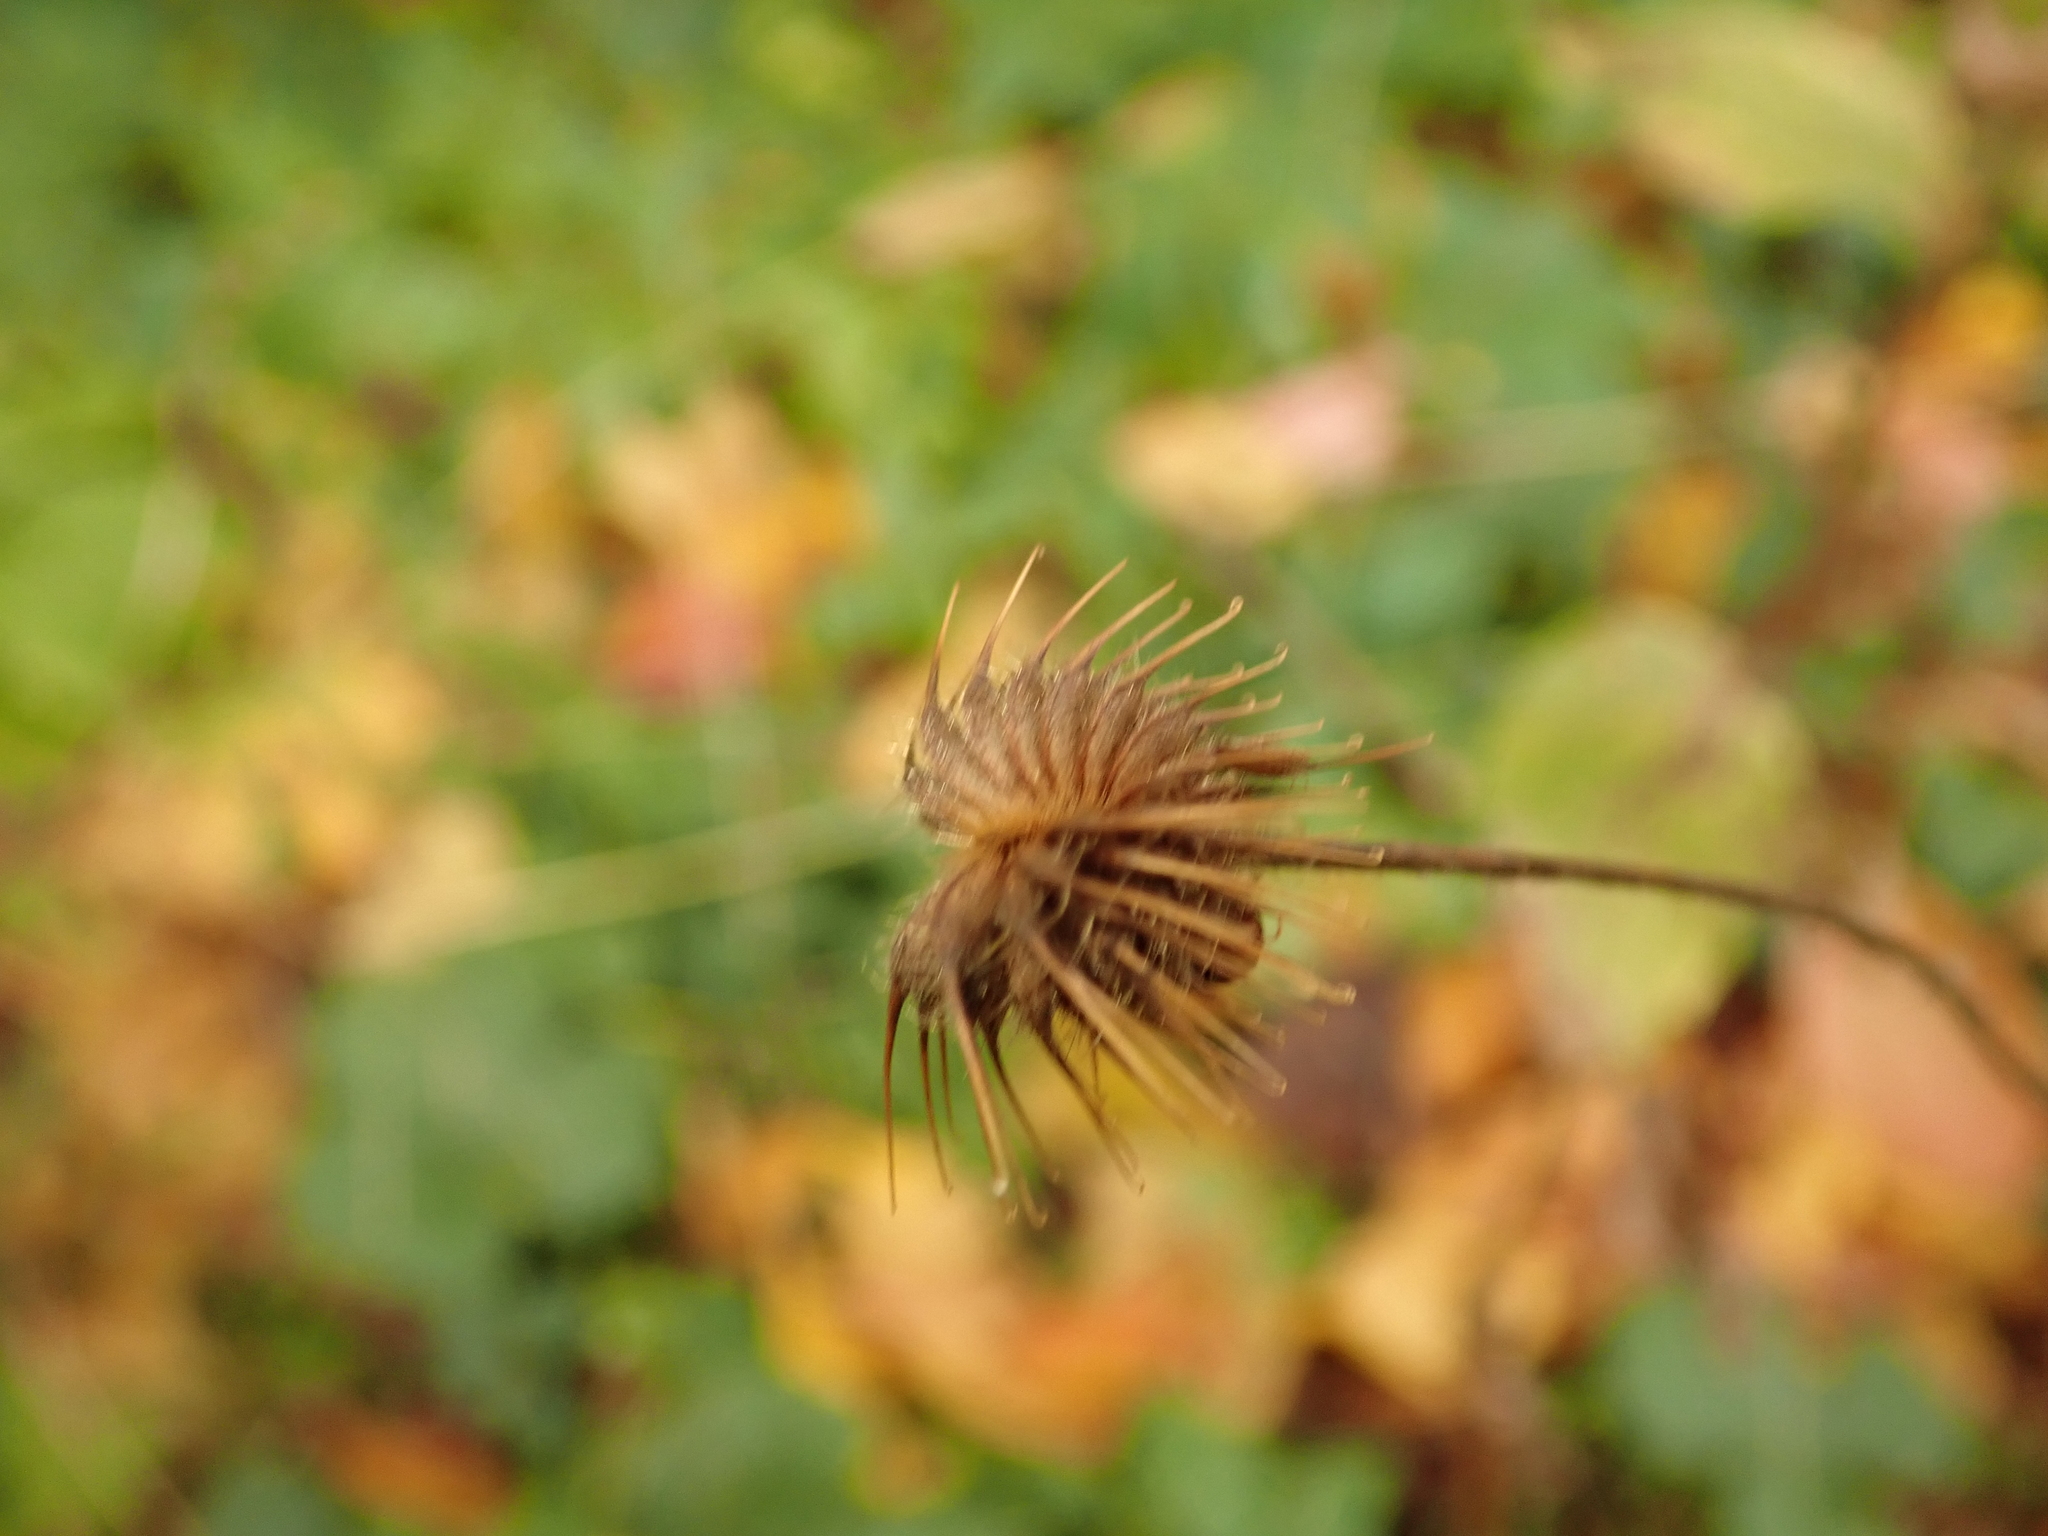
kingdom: Plantae
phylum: Tracheophyta
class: Magnoliopsida
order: Rosales
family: Rosaceae
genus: Geum
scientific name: Geum urbanum
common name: Wood avens
